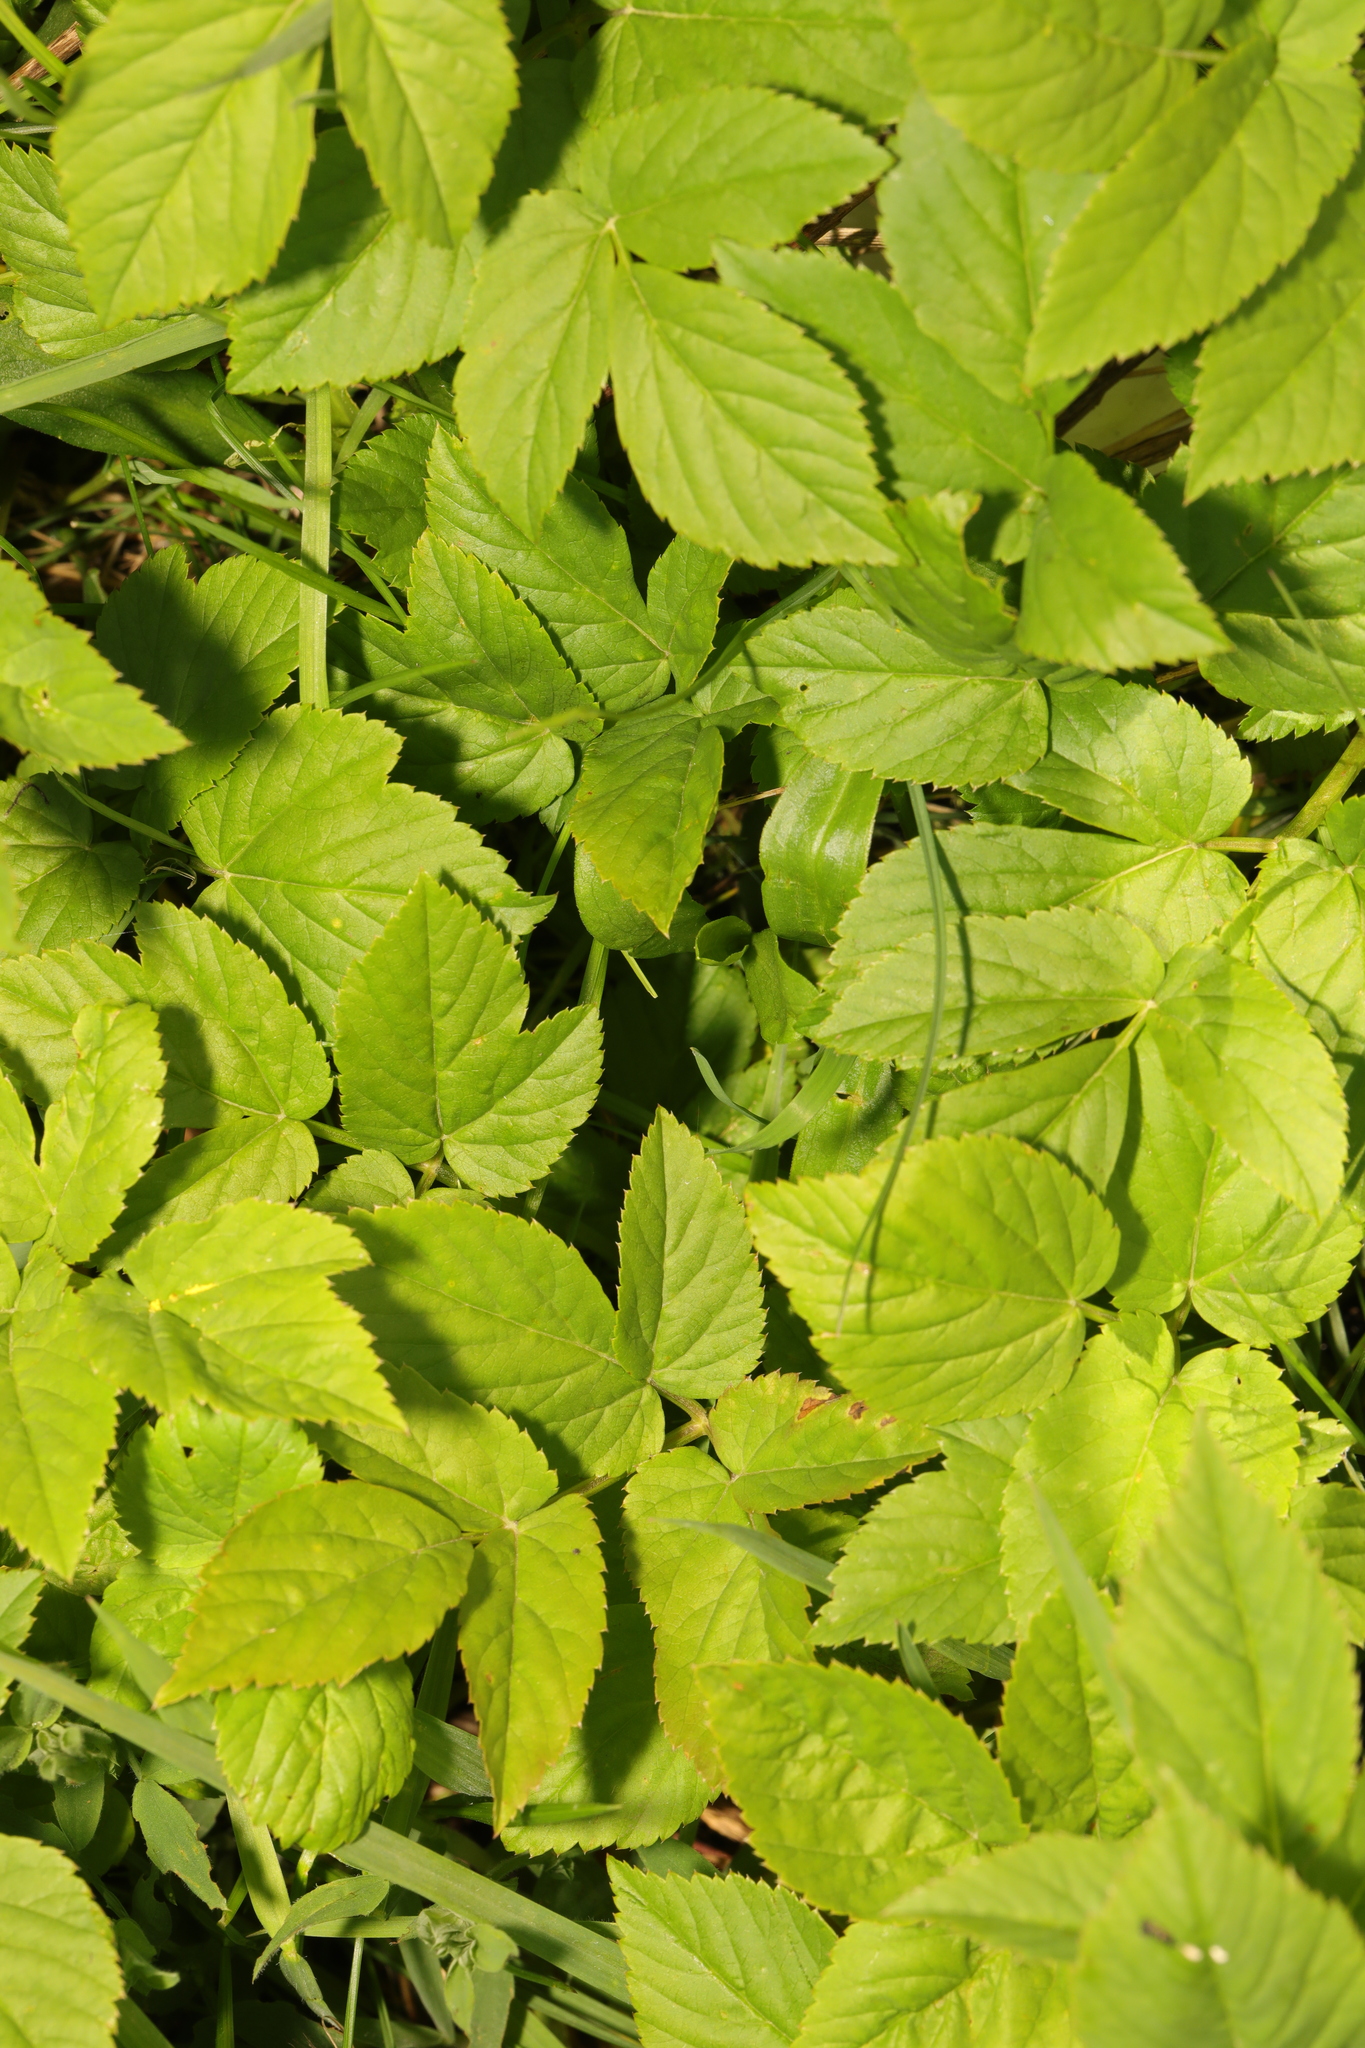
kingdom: Plantae
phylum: Tracheophyta
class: Magnoliopsida
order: Apiales
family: Apiaceae
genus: Aegopodium
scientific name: Aegopodium podagraria
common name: Ground-elder
